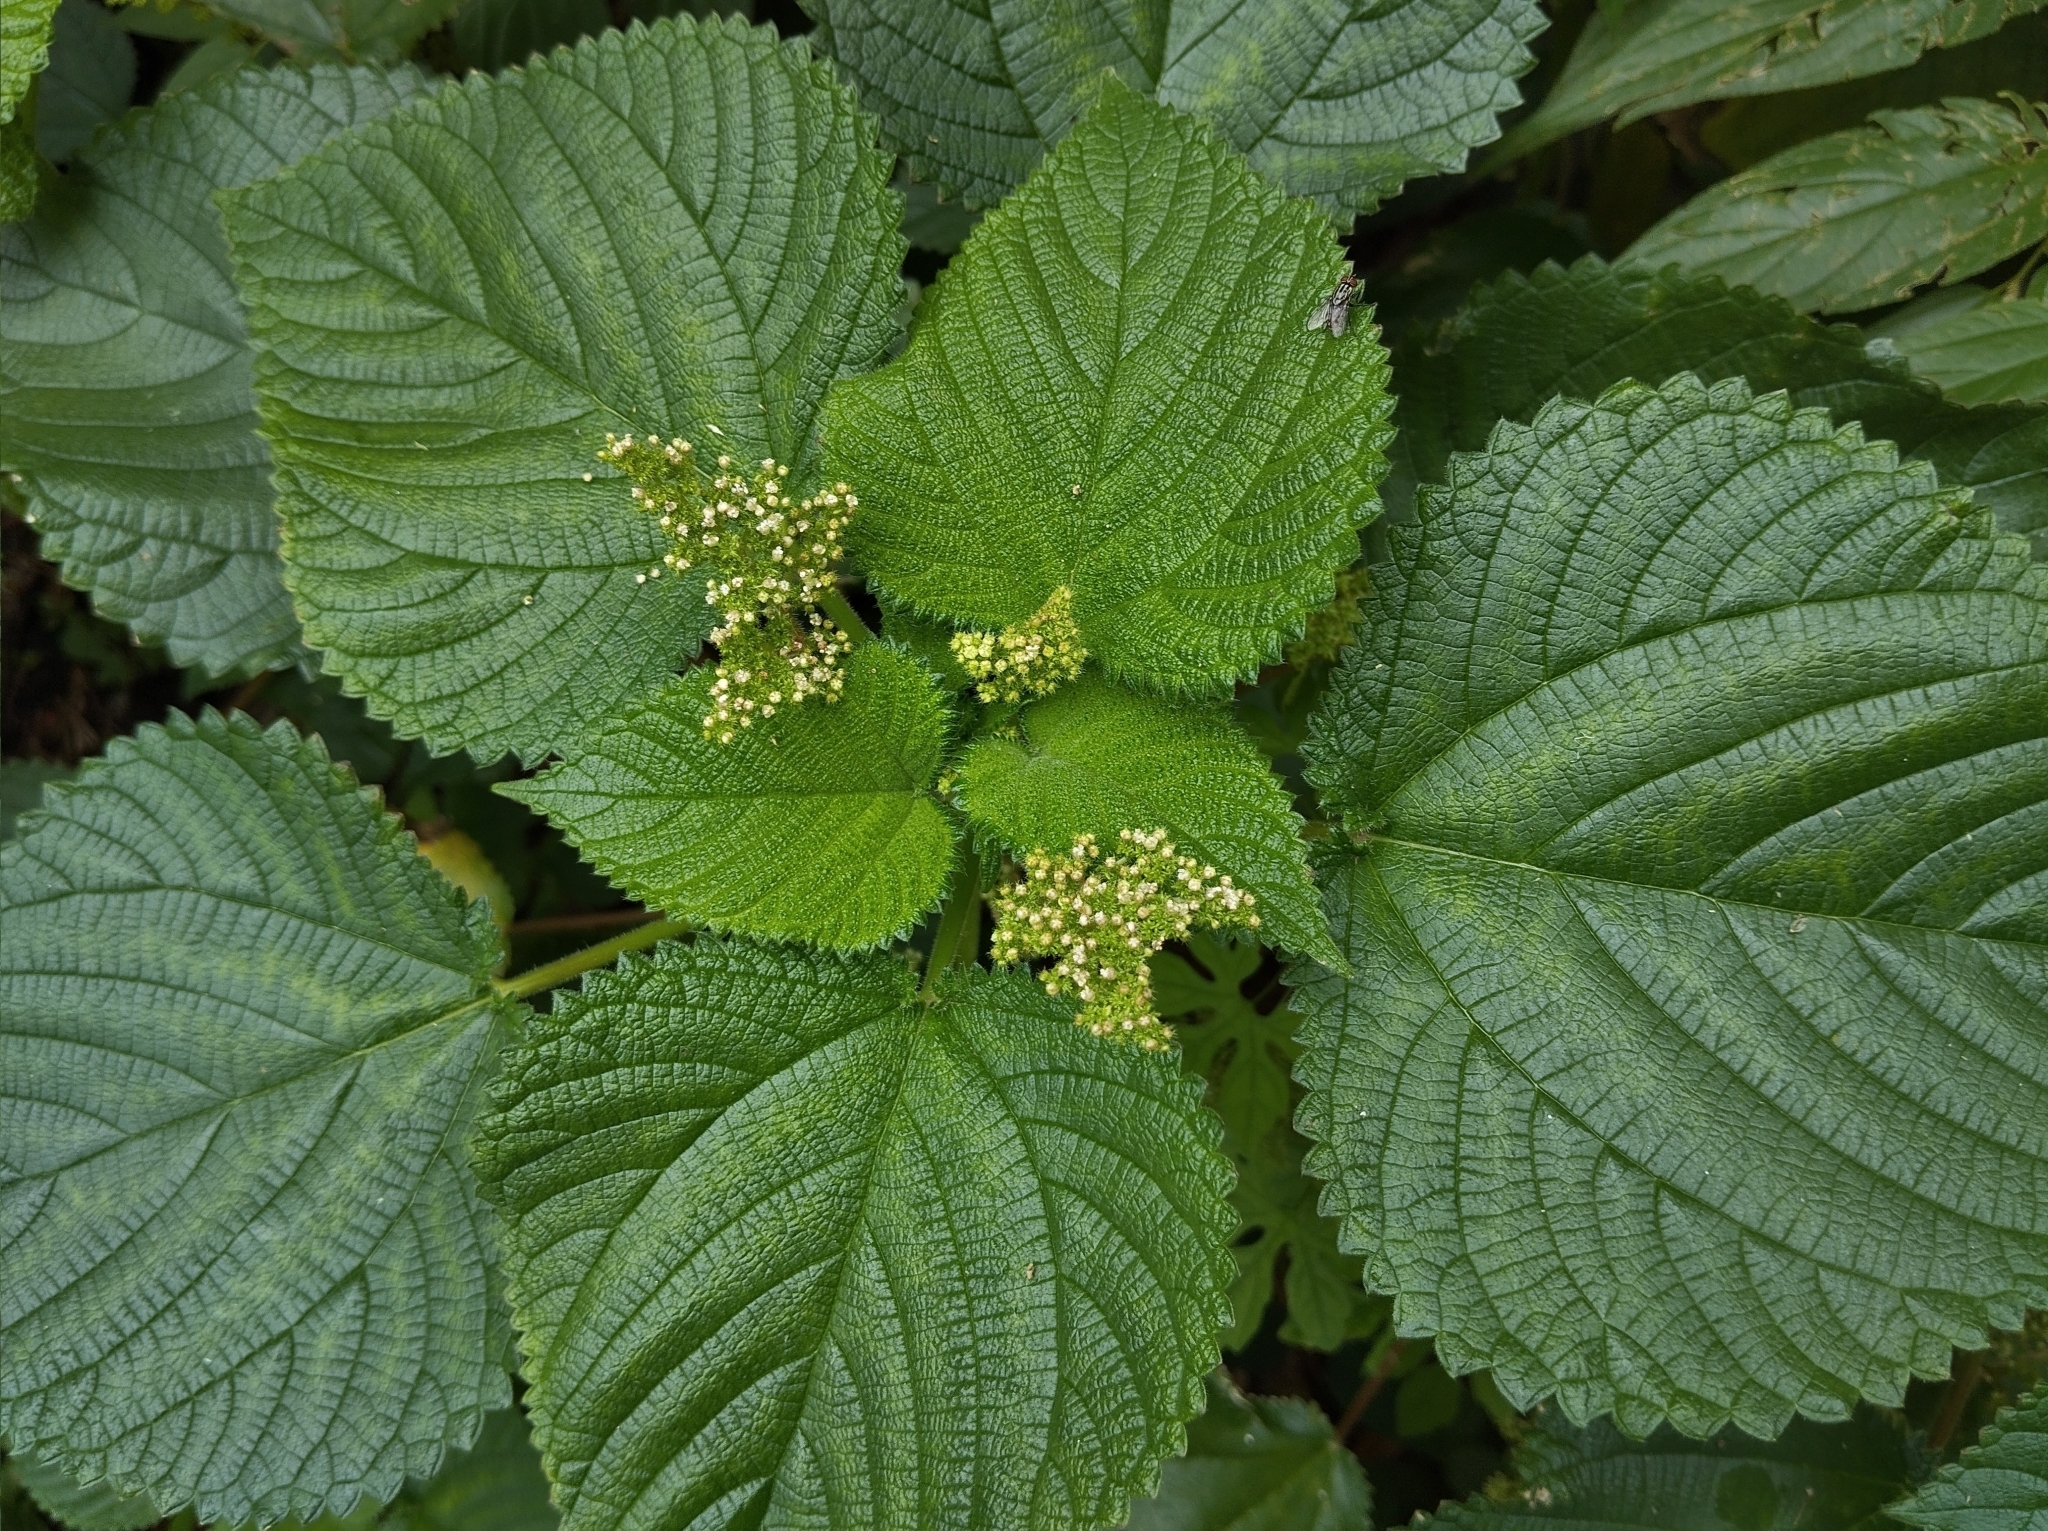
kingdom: Plantae
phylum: Tracheophyta
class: Magnoliopsida
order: Rosales
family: Urticaceae
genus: Laportea
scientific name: Laportea aestuans
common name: West indian woodnettle
